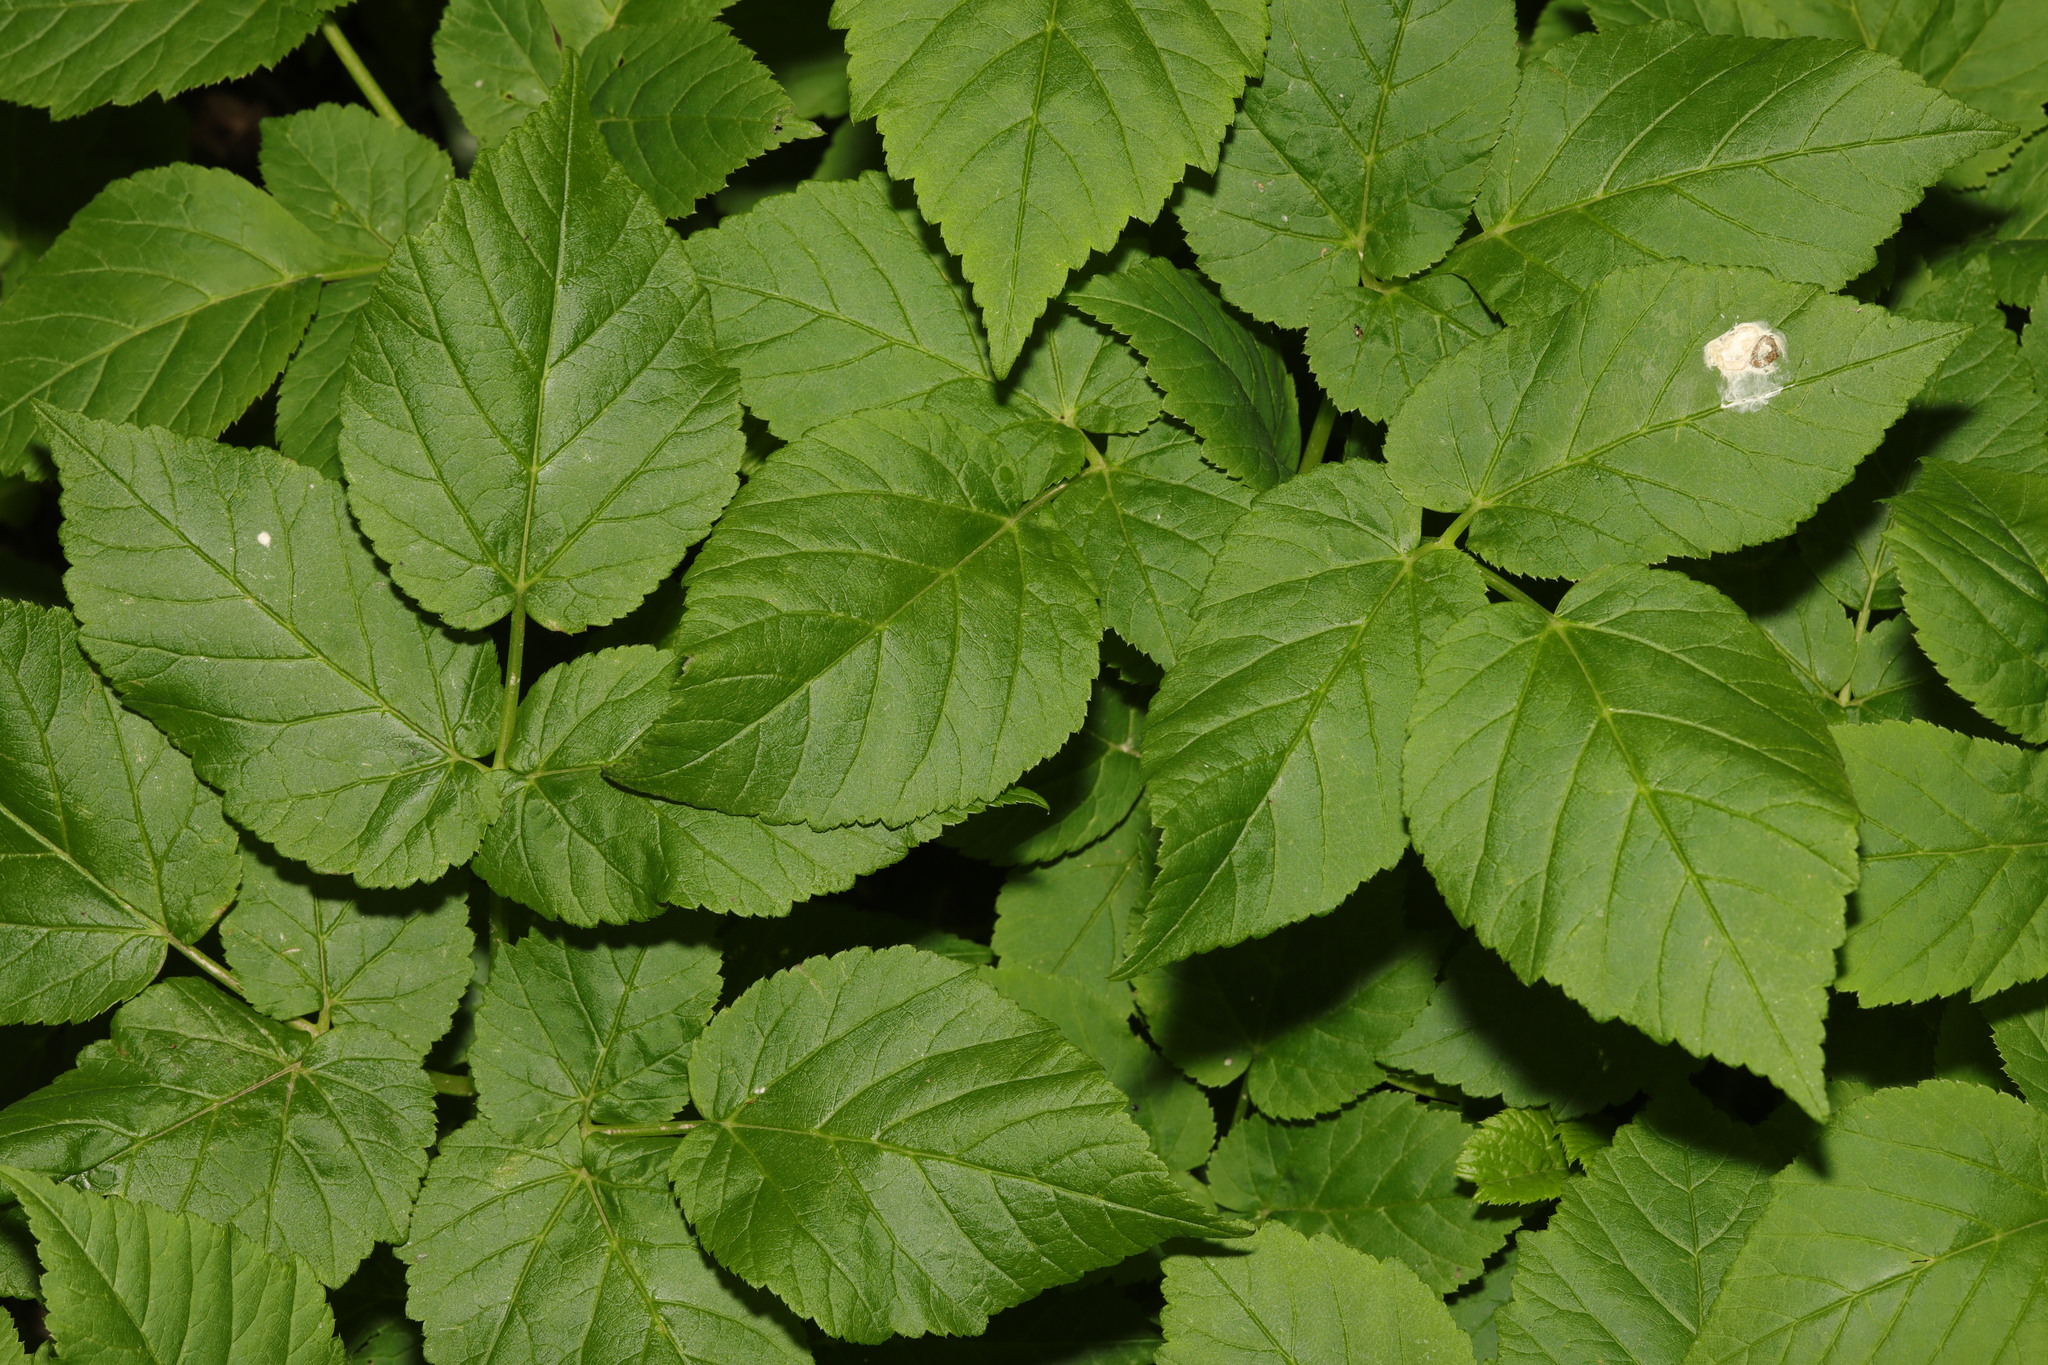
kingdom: Plantae
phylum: Tracheophyta
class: Magnoliopsida
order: Apiales
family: Apiaceae
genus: Aegopodium
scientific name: Aegopodium podagraria
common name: Ground-elder
